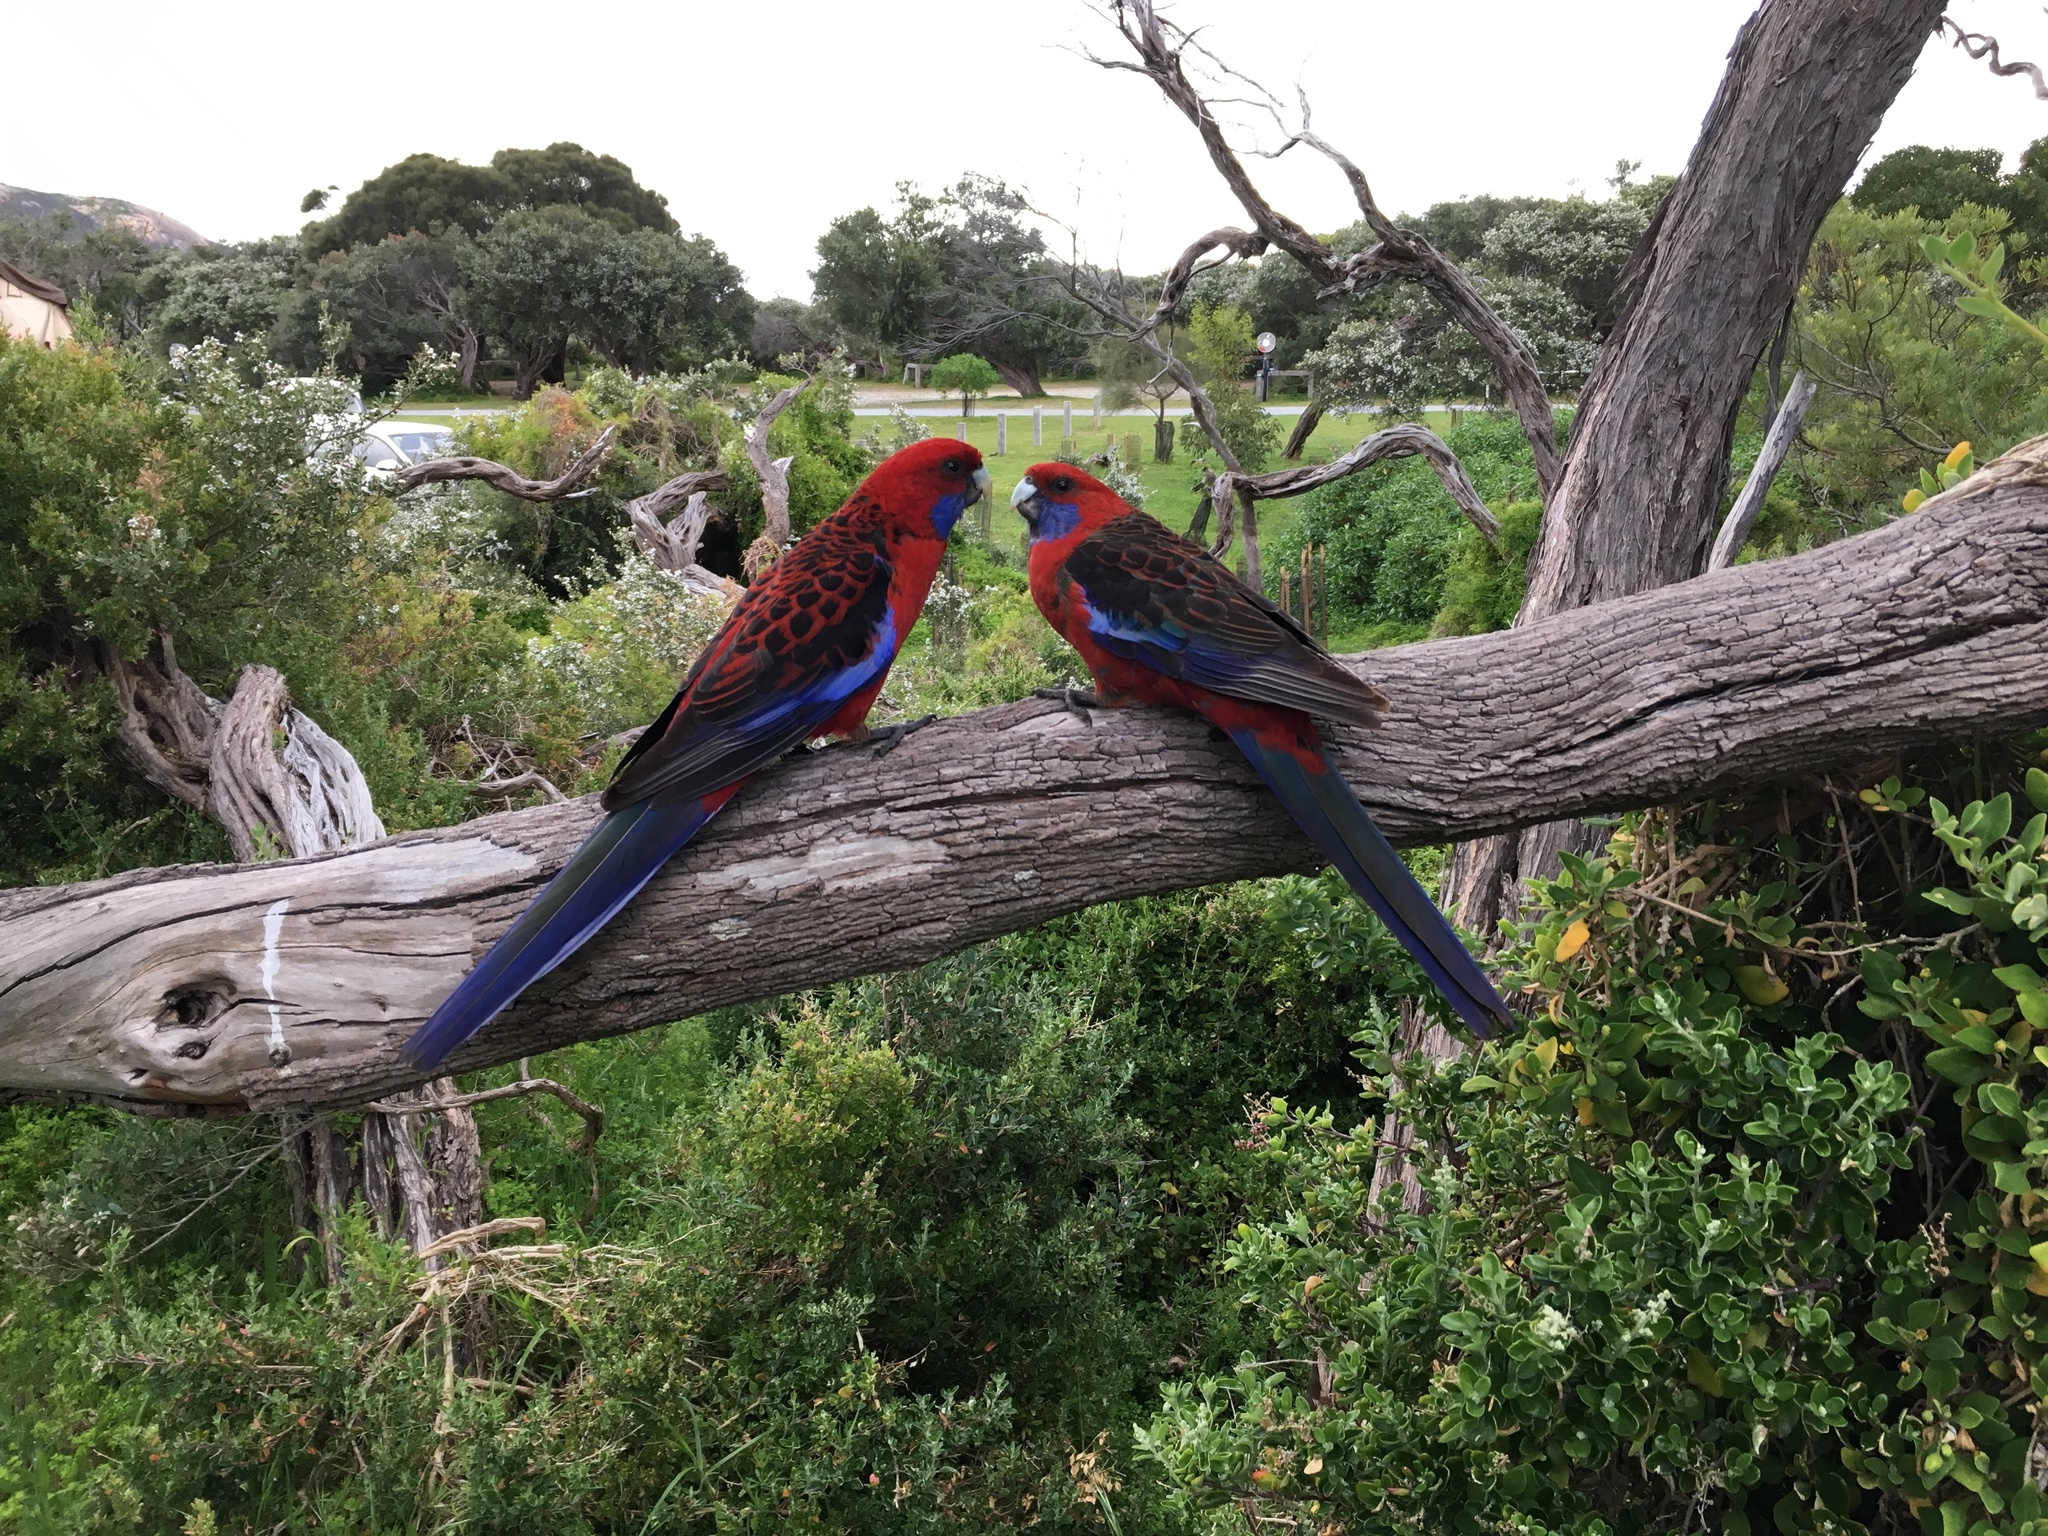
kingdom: Animalia
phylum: Chordata
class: Aves
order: Psittaciformes
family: Psittacidae
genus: Platycercus
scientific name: Platycercus elegans
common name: Crimson rosella
